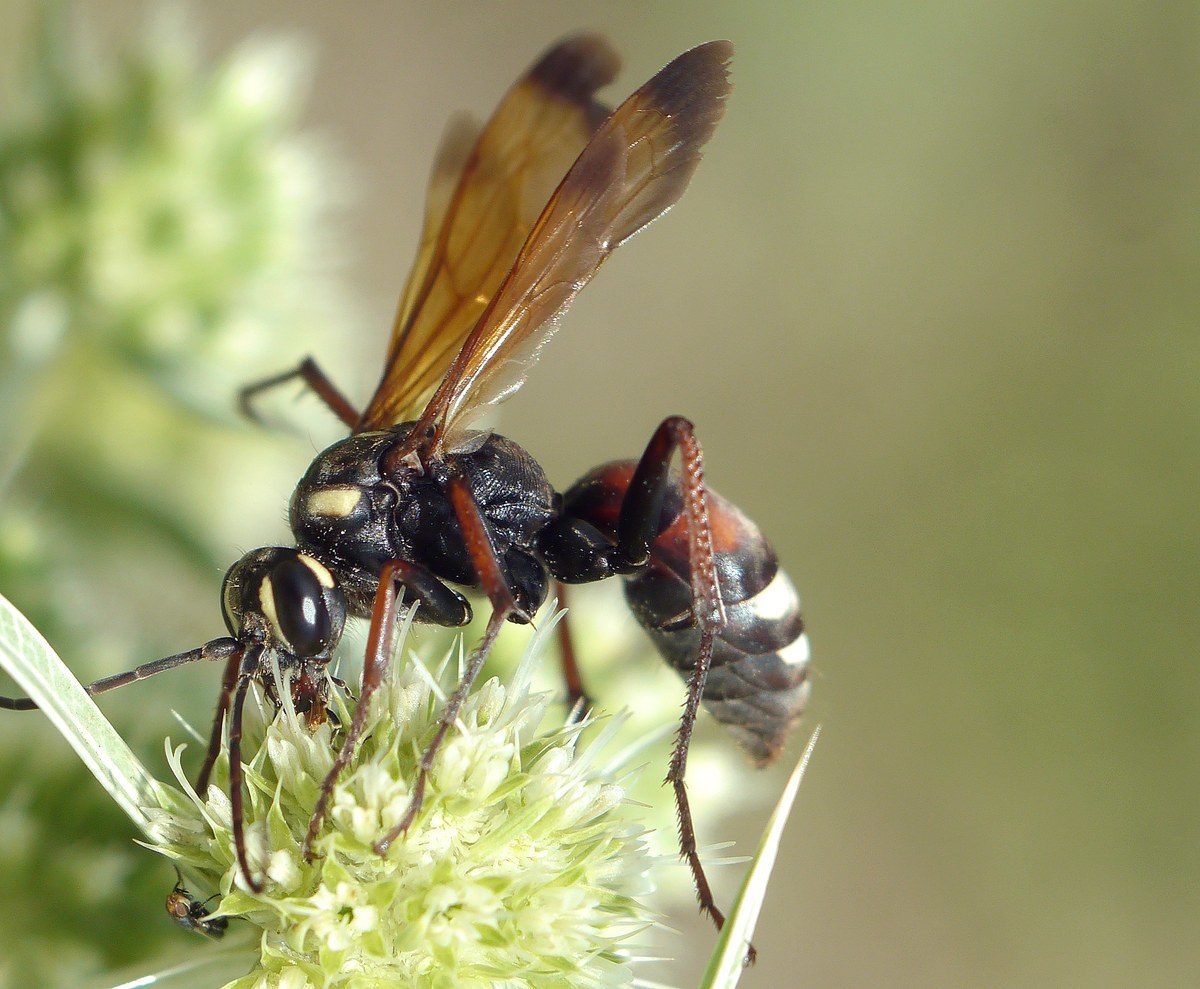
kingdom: Animalia
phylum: Arthropoda
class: Insecta
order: Hymenoptera
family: Pompilidae
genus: Cryptocheilus
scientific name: Cryptocheilus egregius
